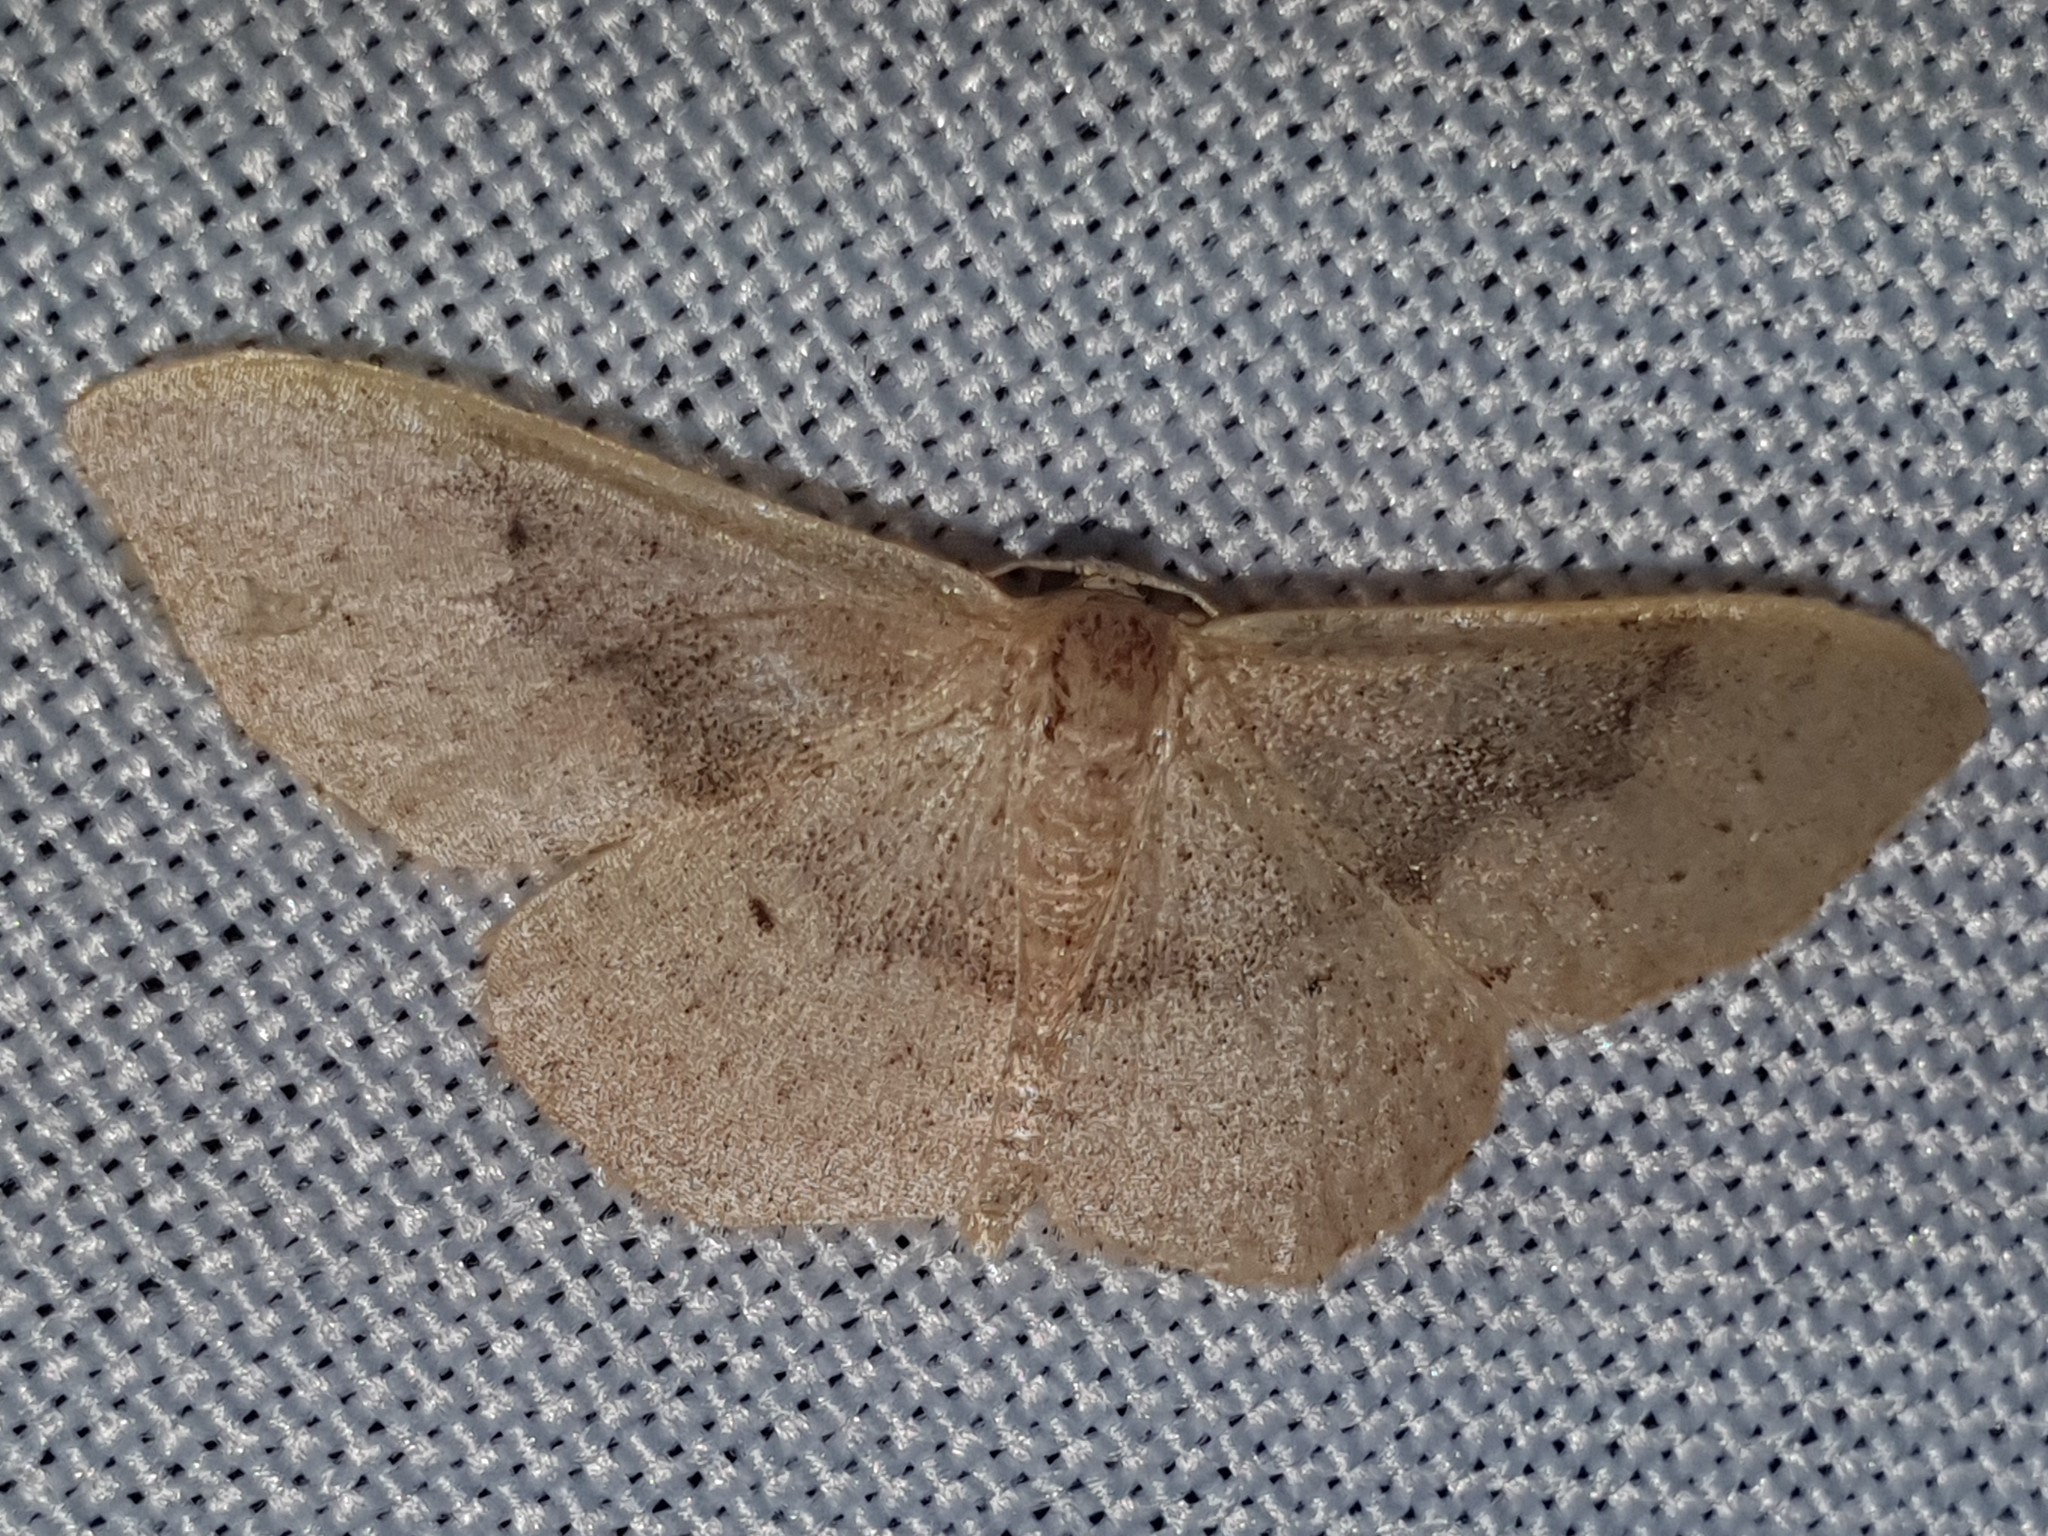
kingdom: Animalia
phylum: Arthropoda
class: Insecta
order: Lepidoptera
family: Geometridae
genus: Idaea
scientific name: Idaea eugeniata
